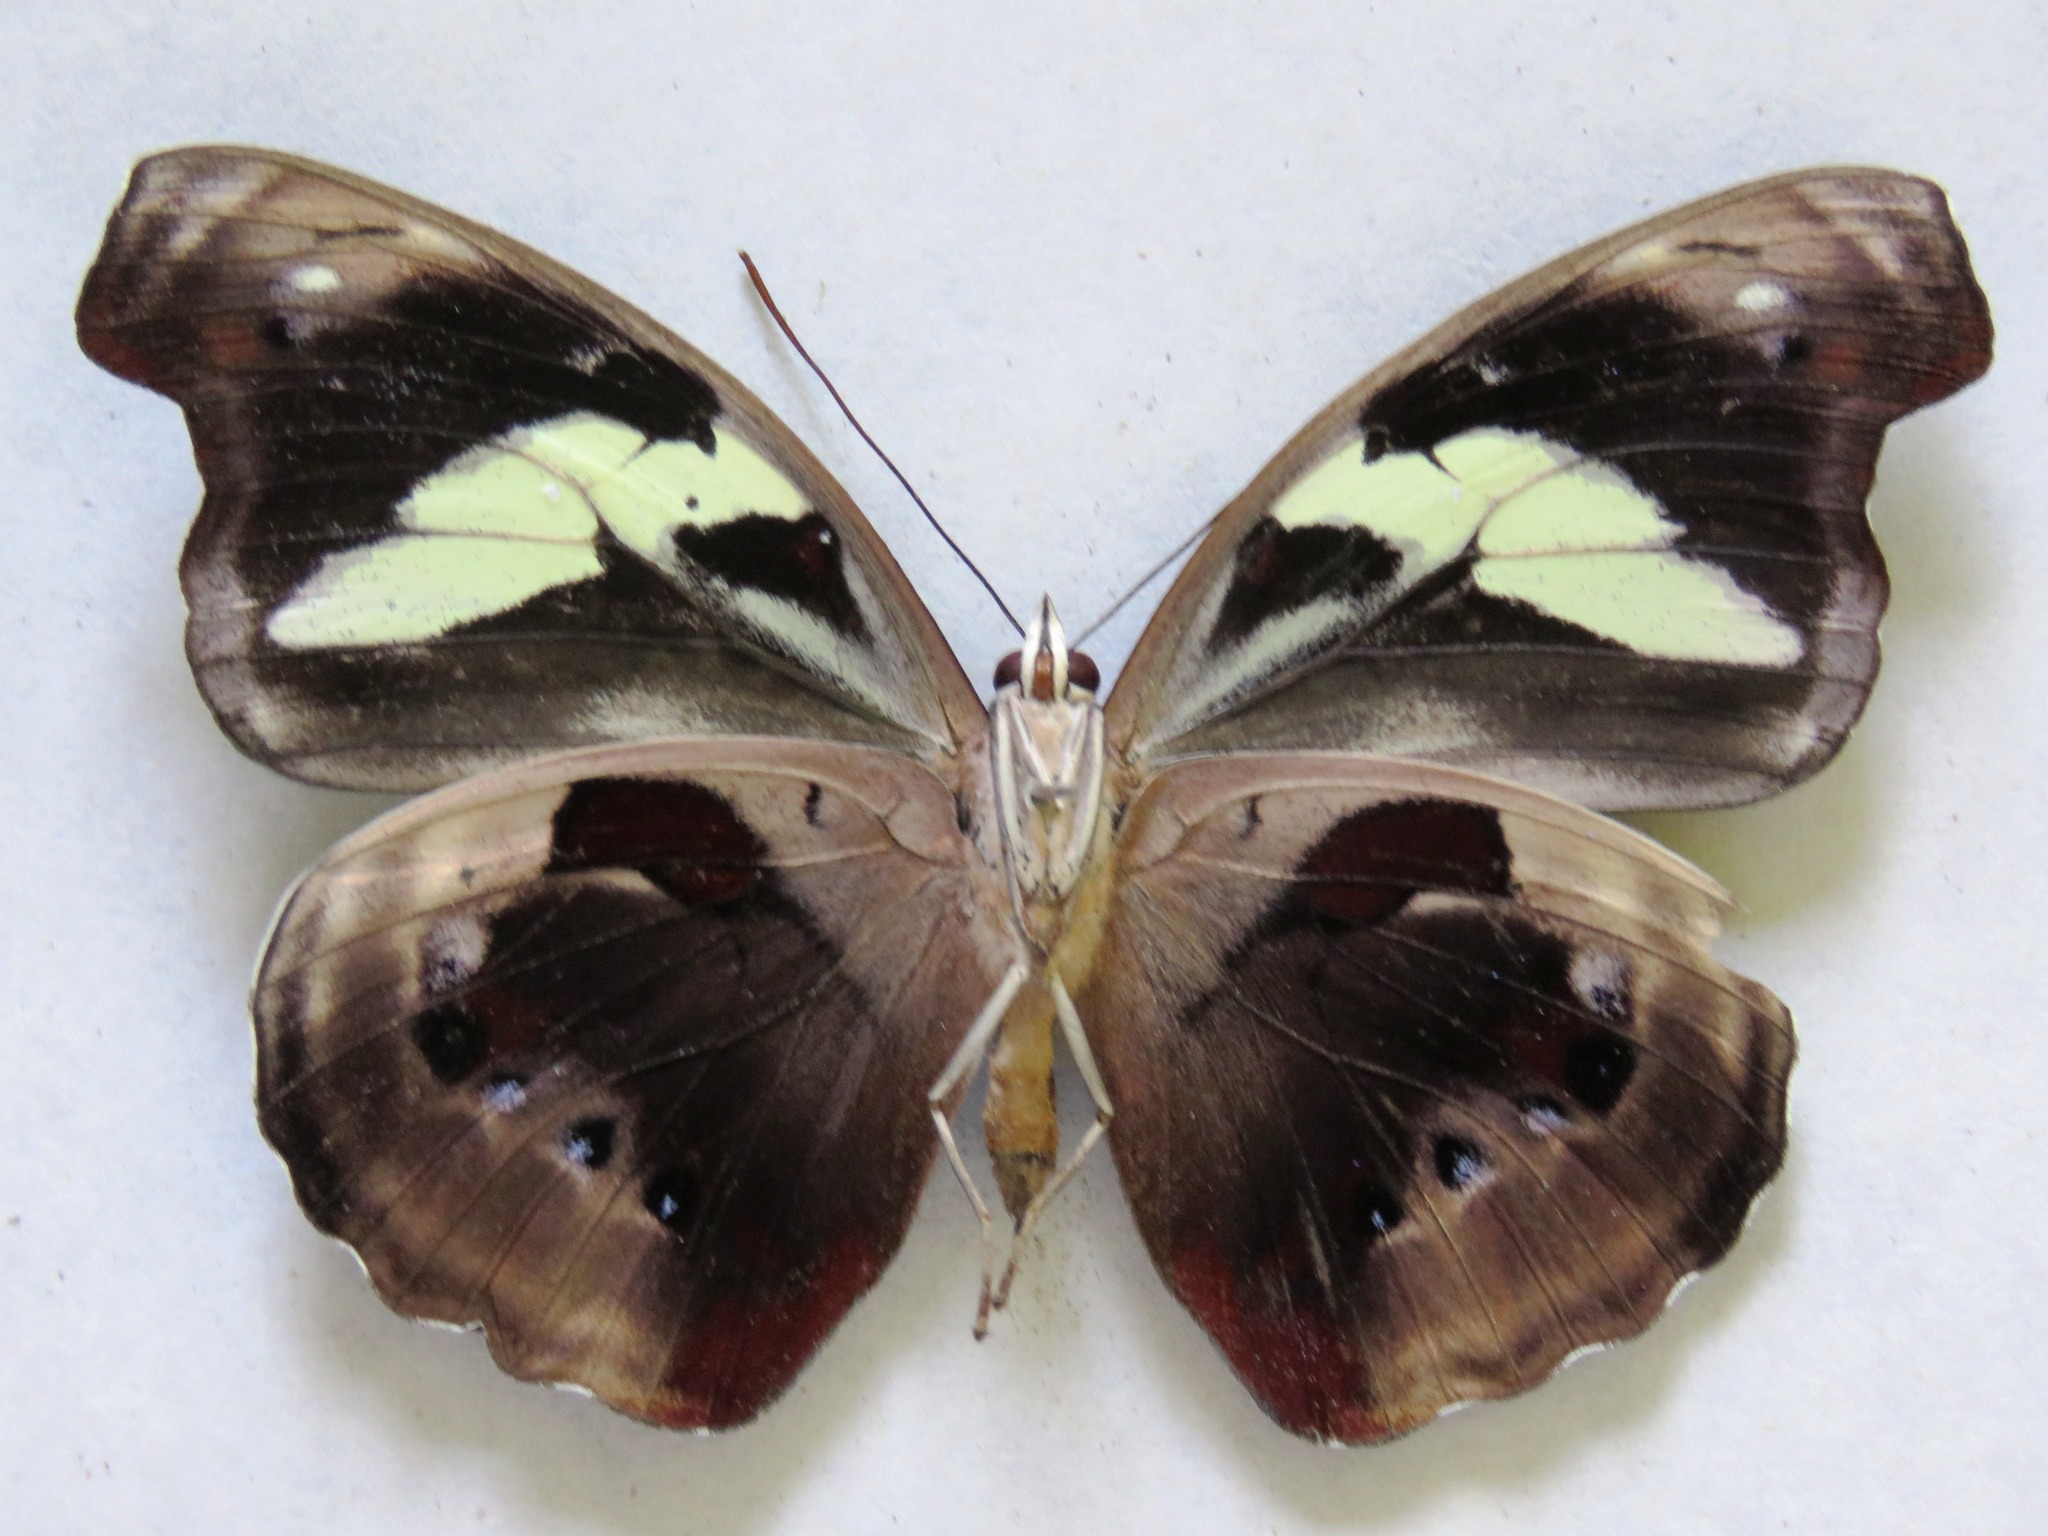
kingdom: Animalia
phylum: Arthropoda
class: Insecta
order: Lepidoptera
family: Nymphalidae
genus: Catonephele
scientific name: Catonephele numilia
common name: Blue-frosted banner
